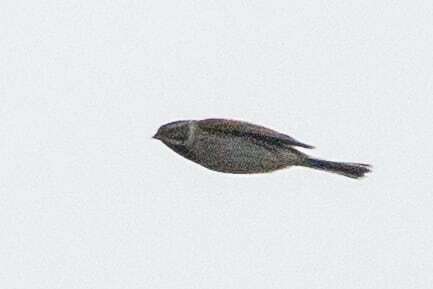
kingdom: Animalia
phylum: Chordata
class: Aves
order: Passeriformes
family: Emberizidae
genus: Emberiza
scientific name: Emberiza schoeniclus
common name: Reed bunting
